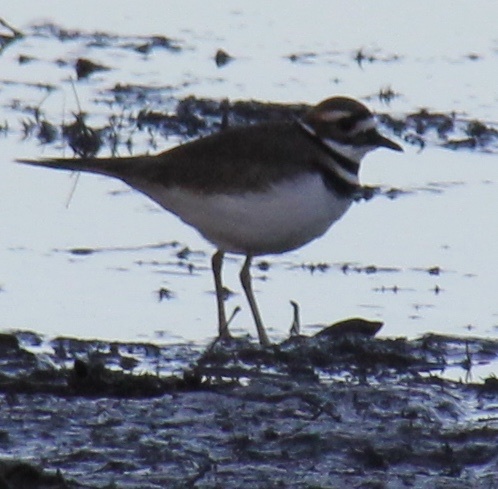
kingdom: Animalia
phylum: Chordata
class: Aves
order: Charadriiformes
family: Charadriidae
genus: Charadrius
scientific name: Charadrius vociferus
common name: Killdeer
